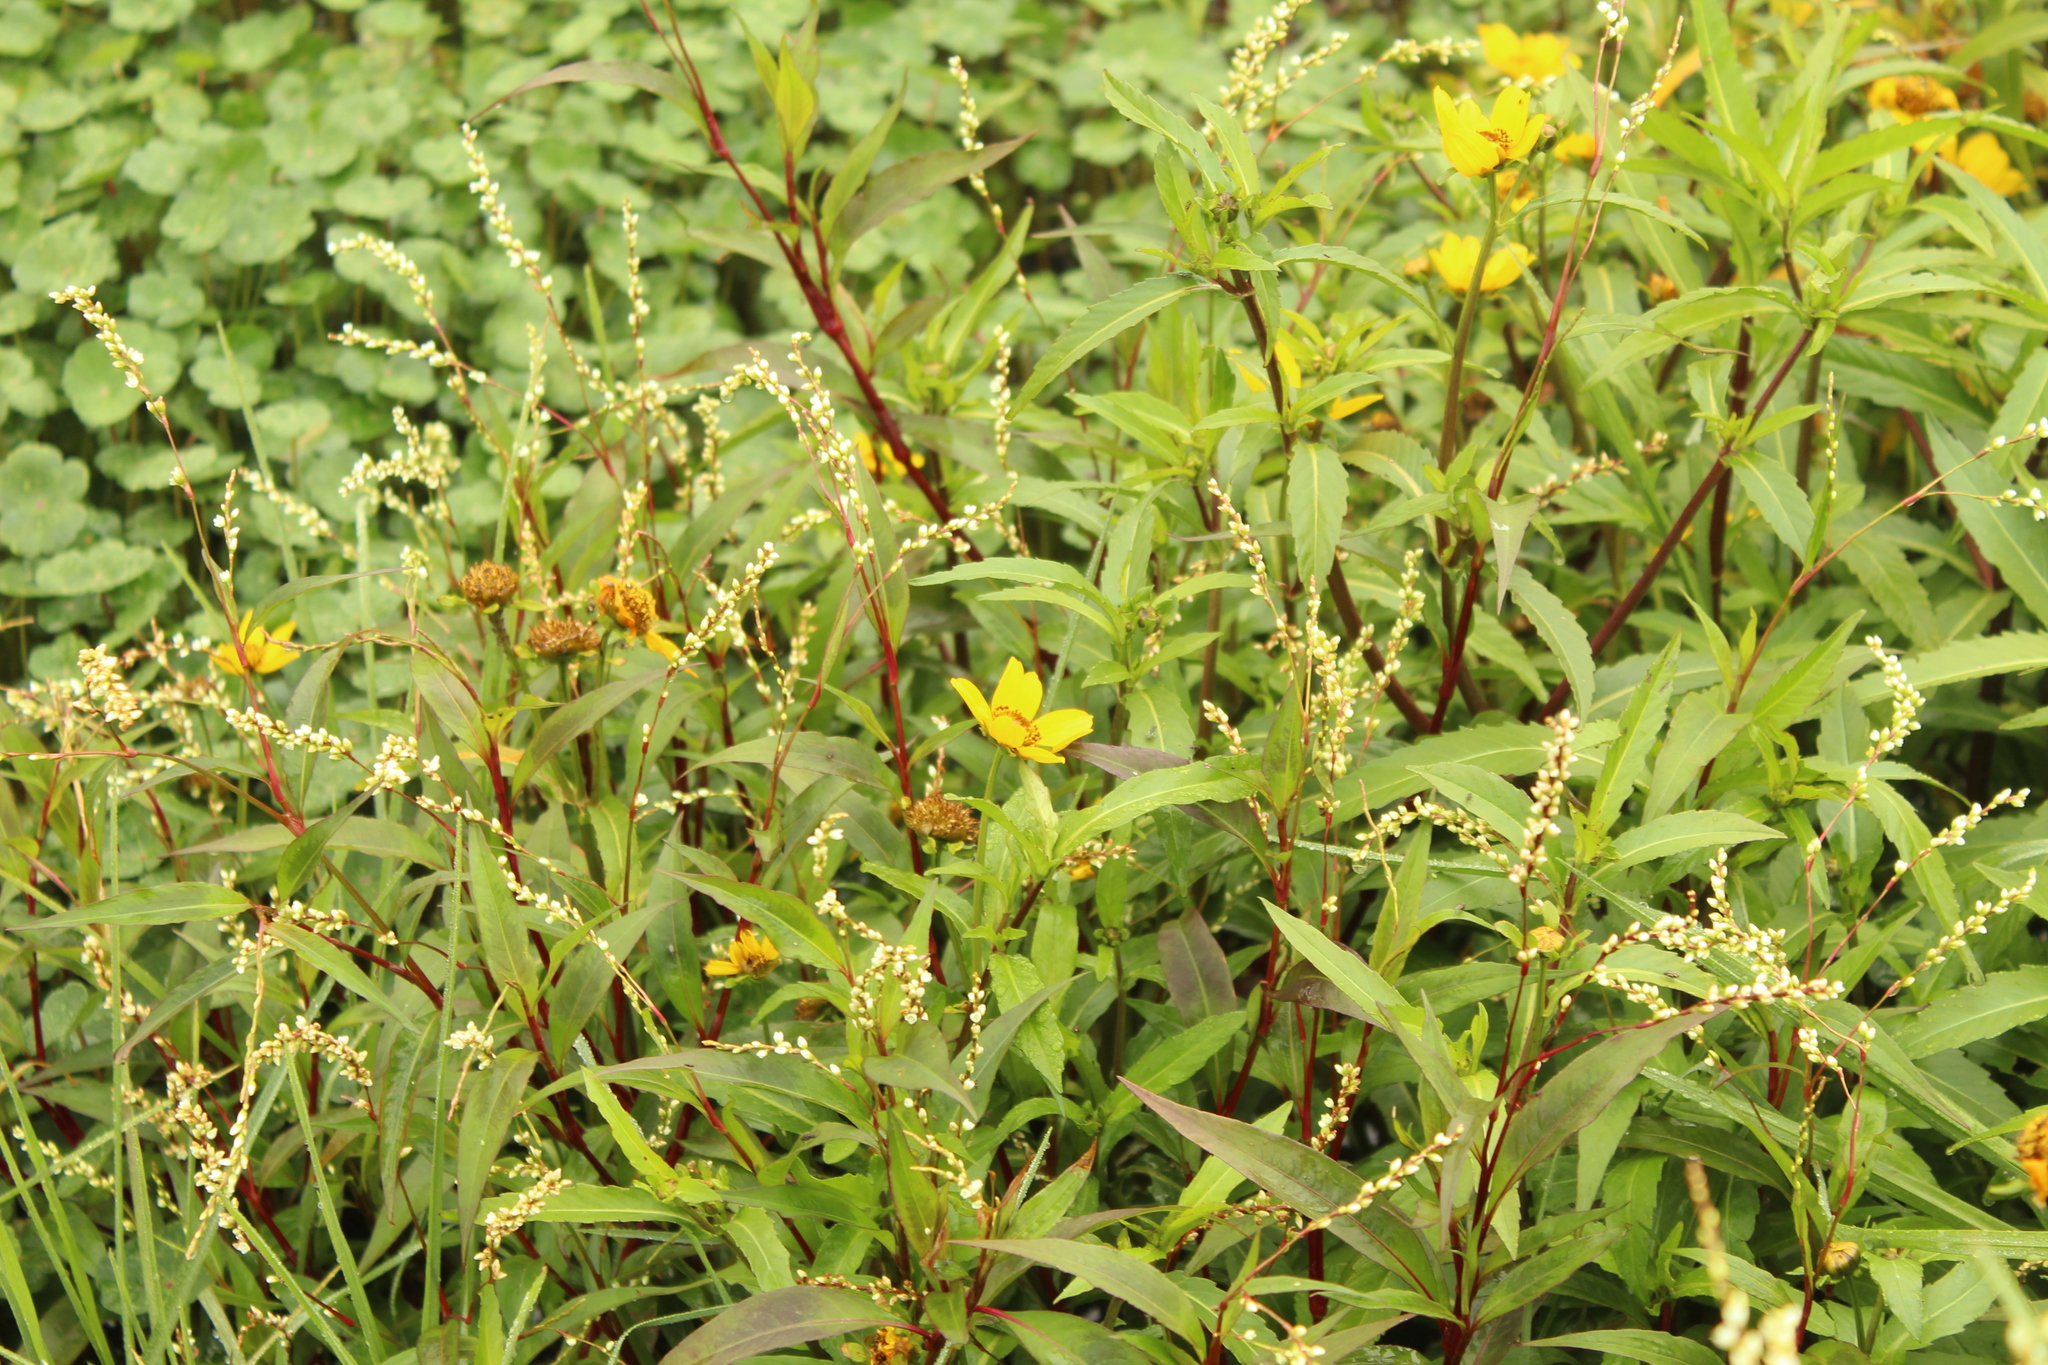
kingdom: Plantae
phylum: Tracheophyta
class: Magnoliopsida
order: Asterales
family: Asteraceae
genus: Bidens
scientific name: Bidens laevis
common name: Larger bur-marigold
